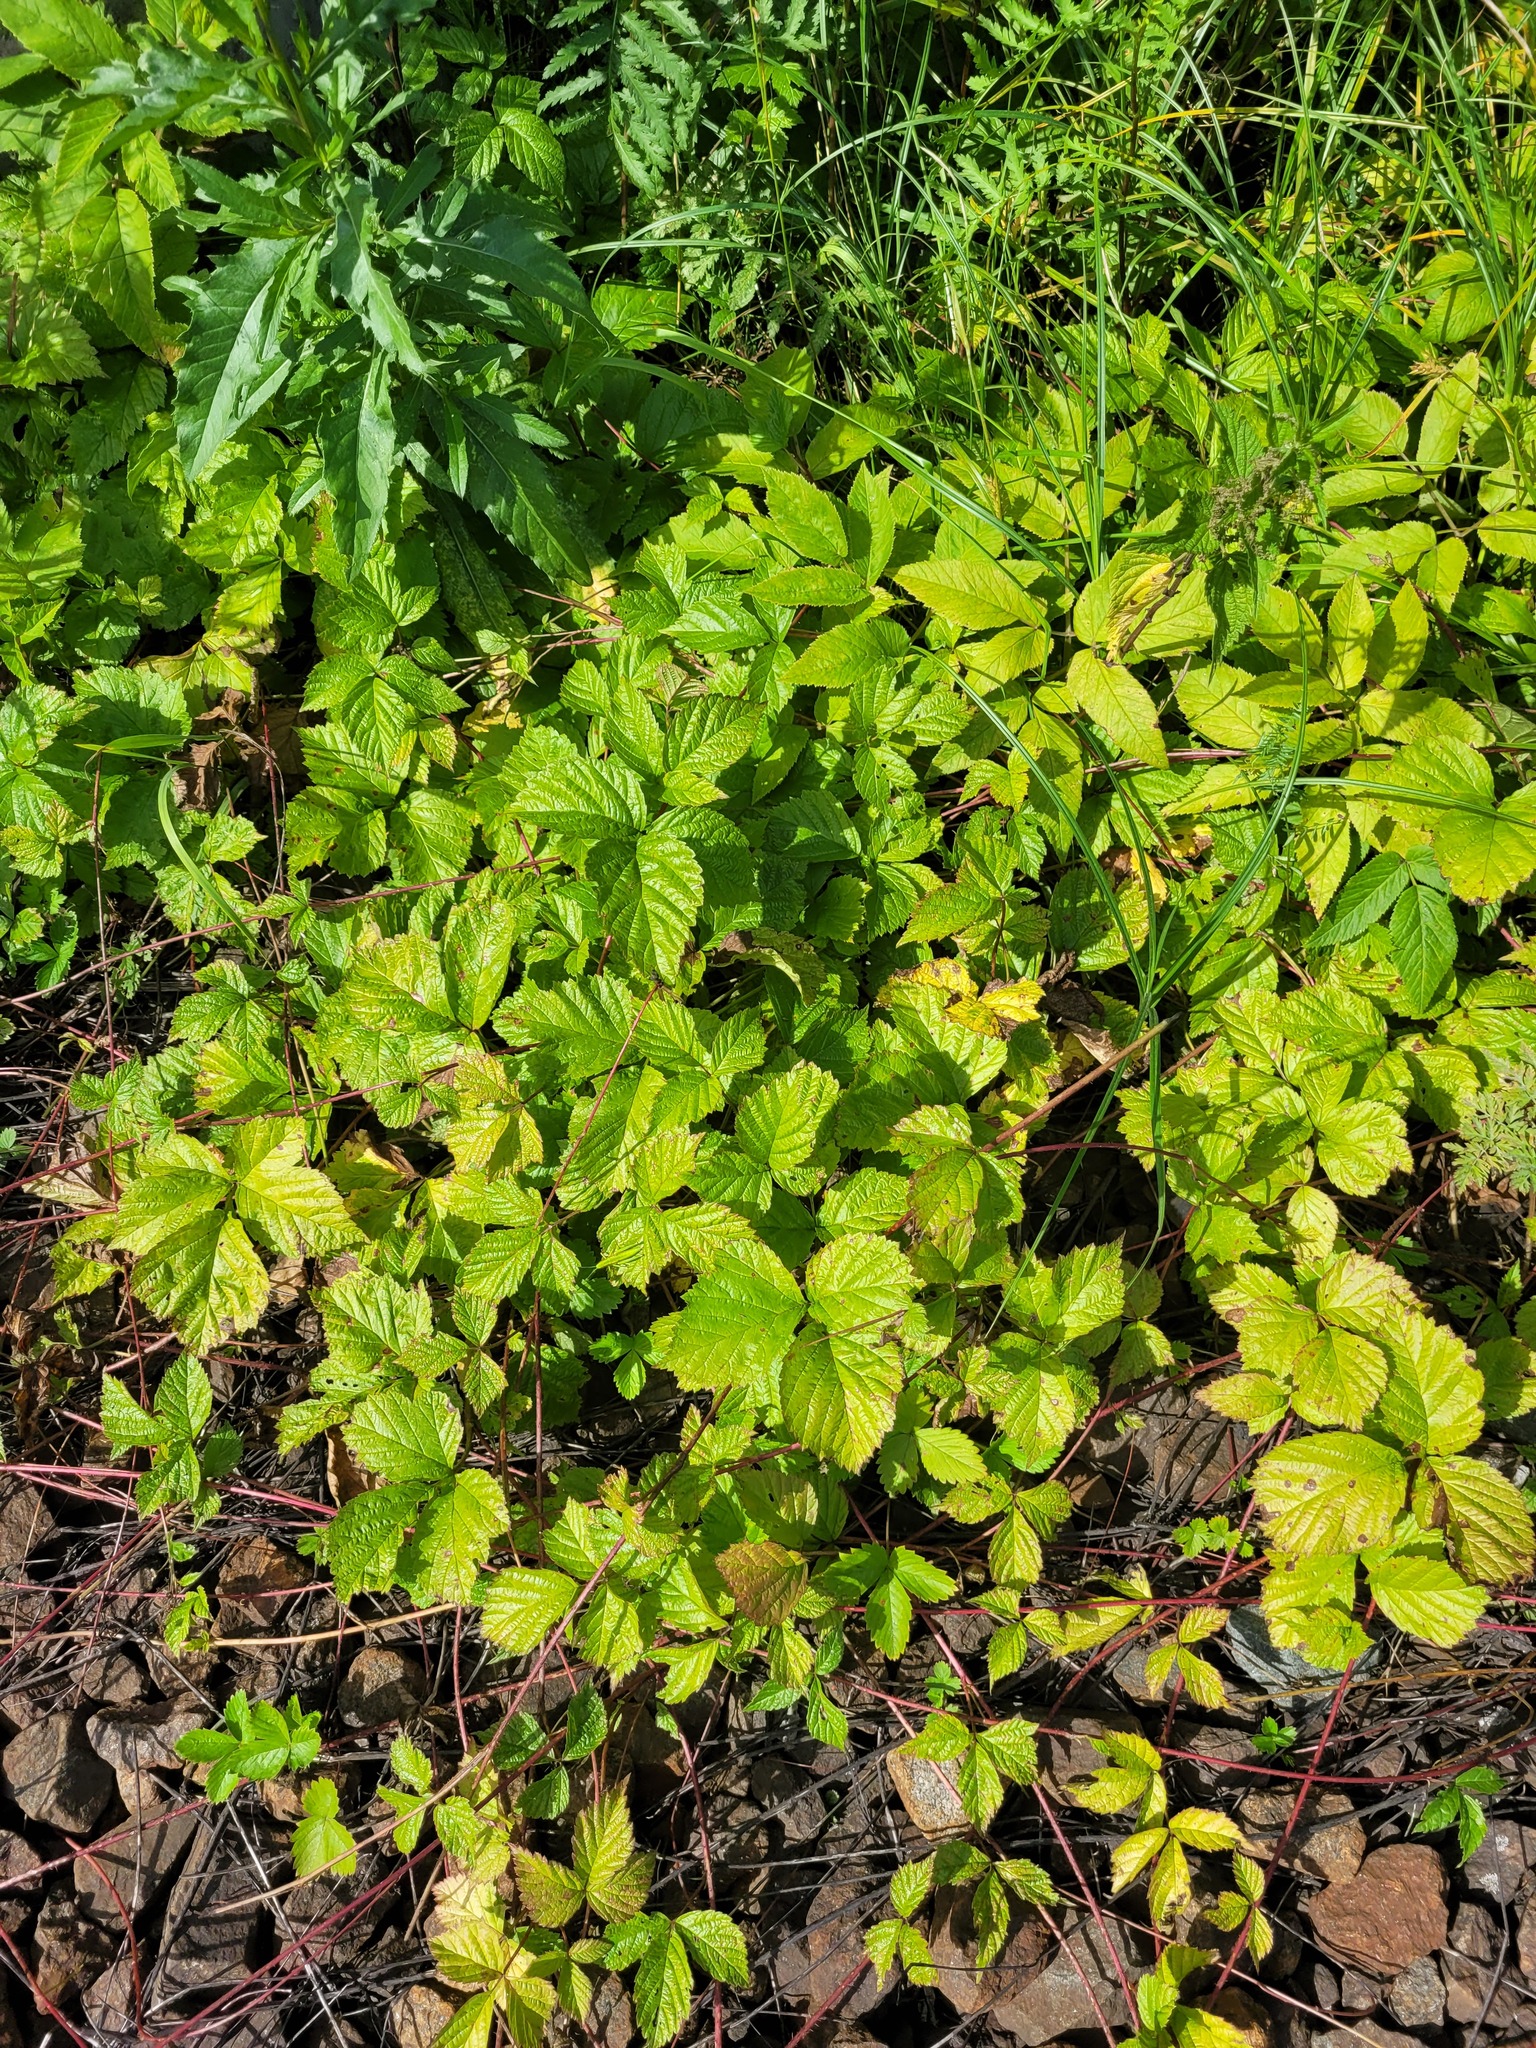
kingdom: Plantae
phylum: Tracheophyta
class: Magnoliopsida
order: Rosales
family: Rosaceae
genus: Rubus
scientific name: Rubus saxatilis
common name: Stone bramble
